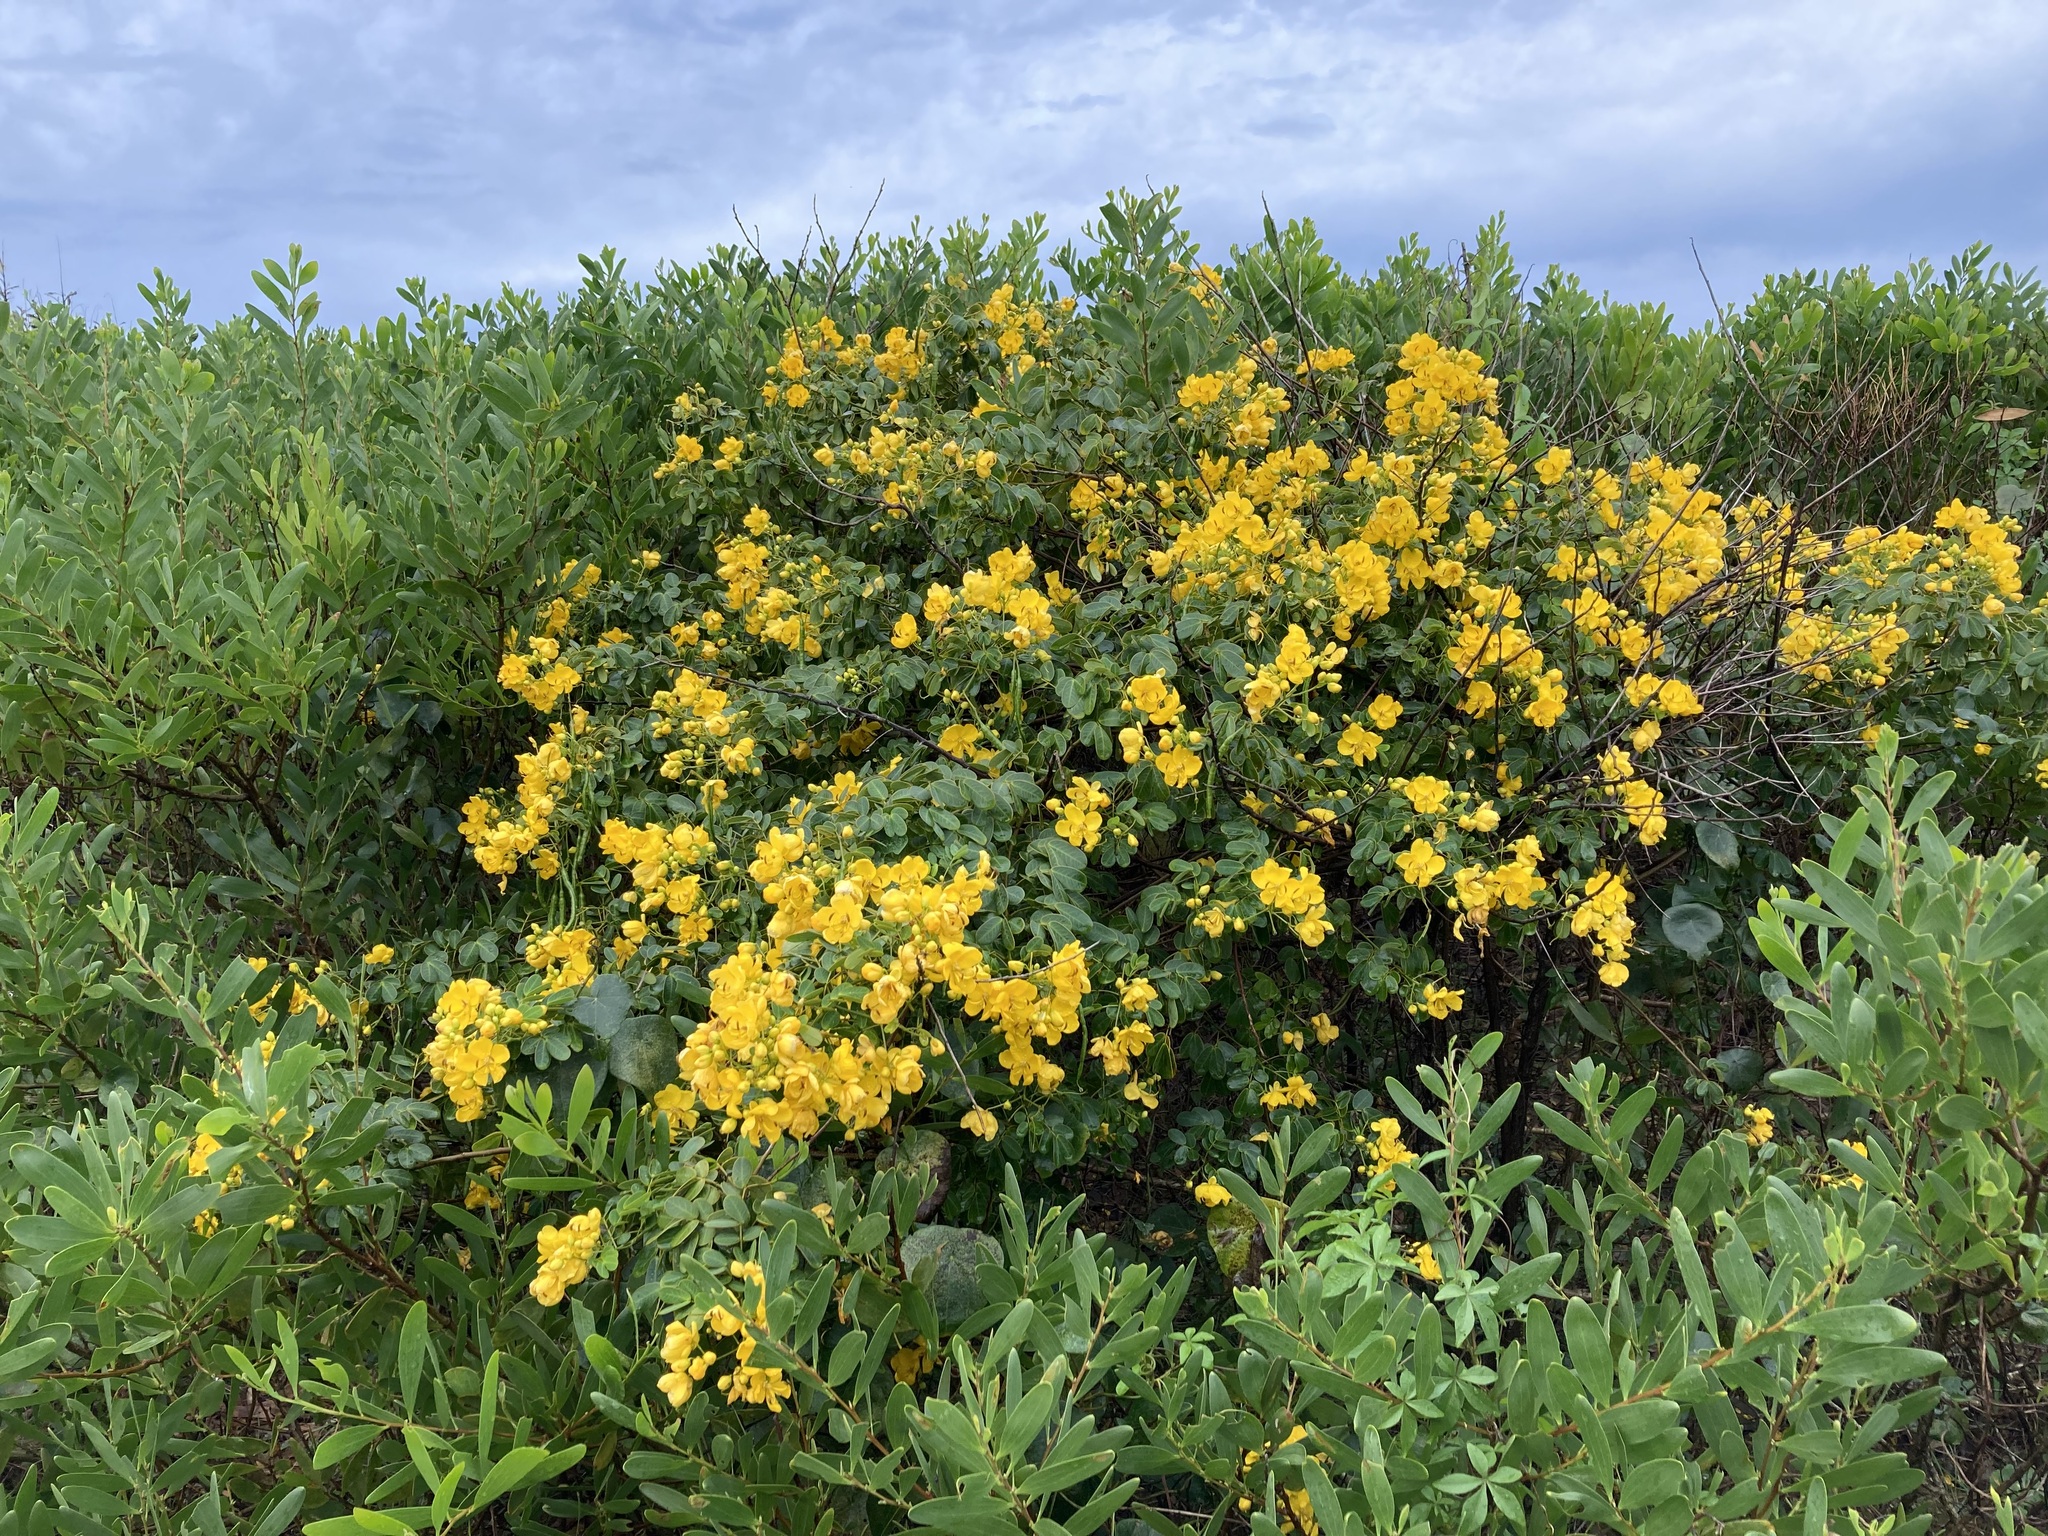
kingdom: Plantae
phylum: Tracheophyta
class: Magnoliopsida
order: Fabales
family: Fabaceae
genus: Senna
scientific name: Senna pendula
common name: Easter cassia
